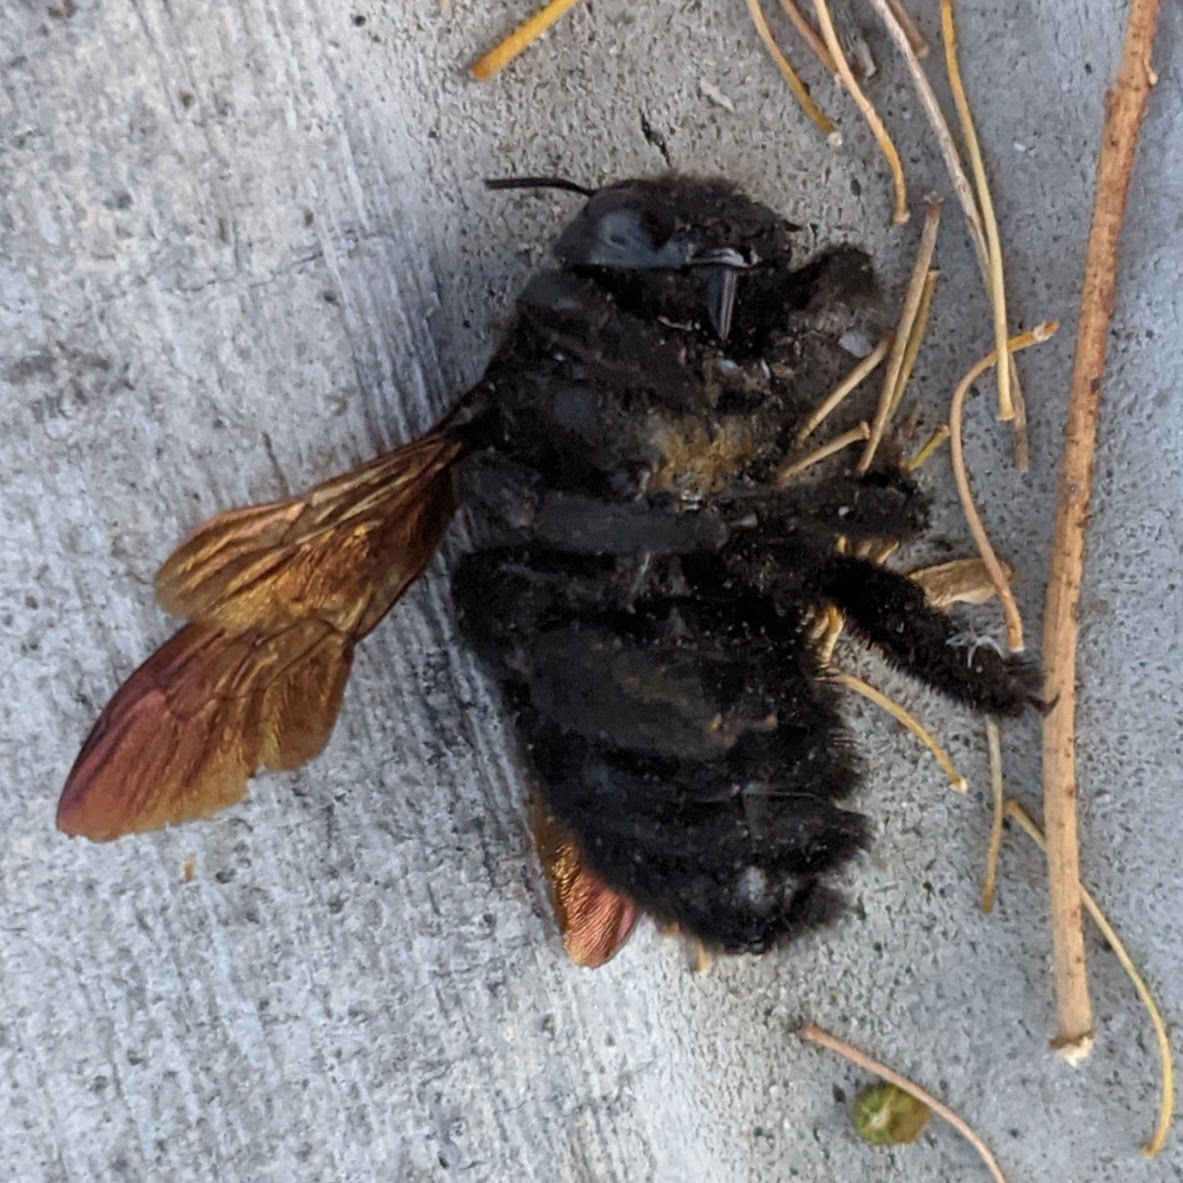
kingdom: Animalia
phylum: Arthropoda
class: Insecta
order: Hymenoptera
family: Apidae
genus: Xylocopa
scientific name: Xylocopa sonorina
